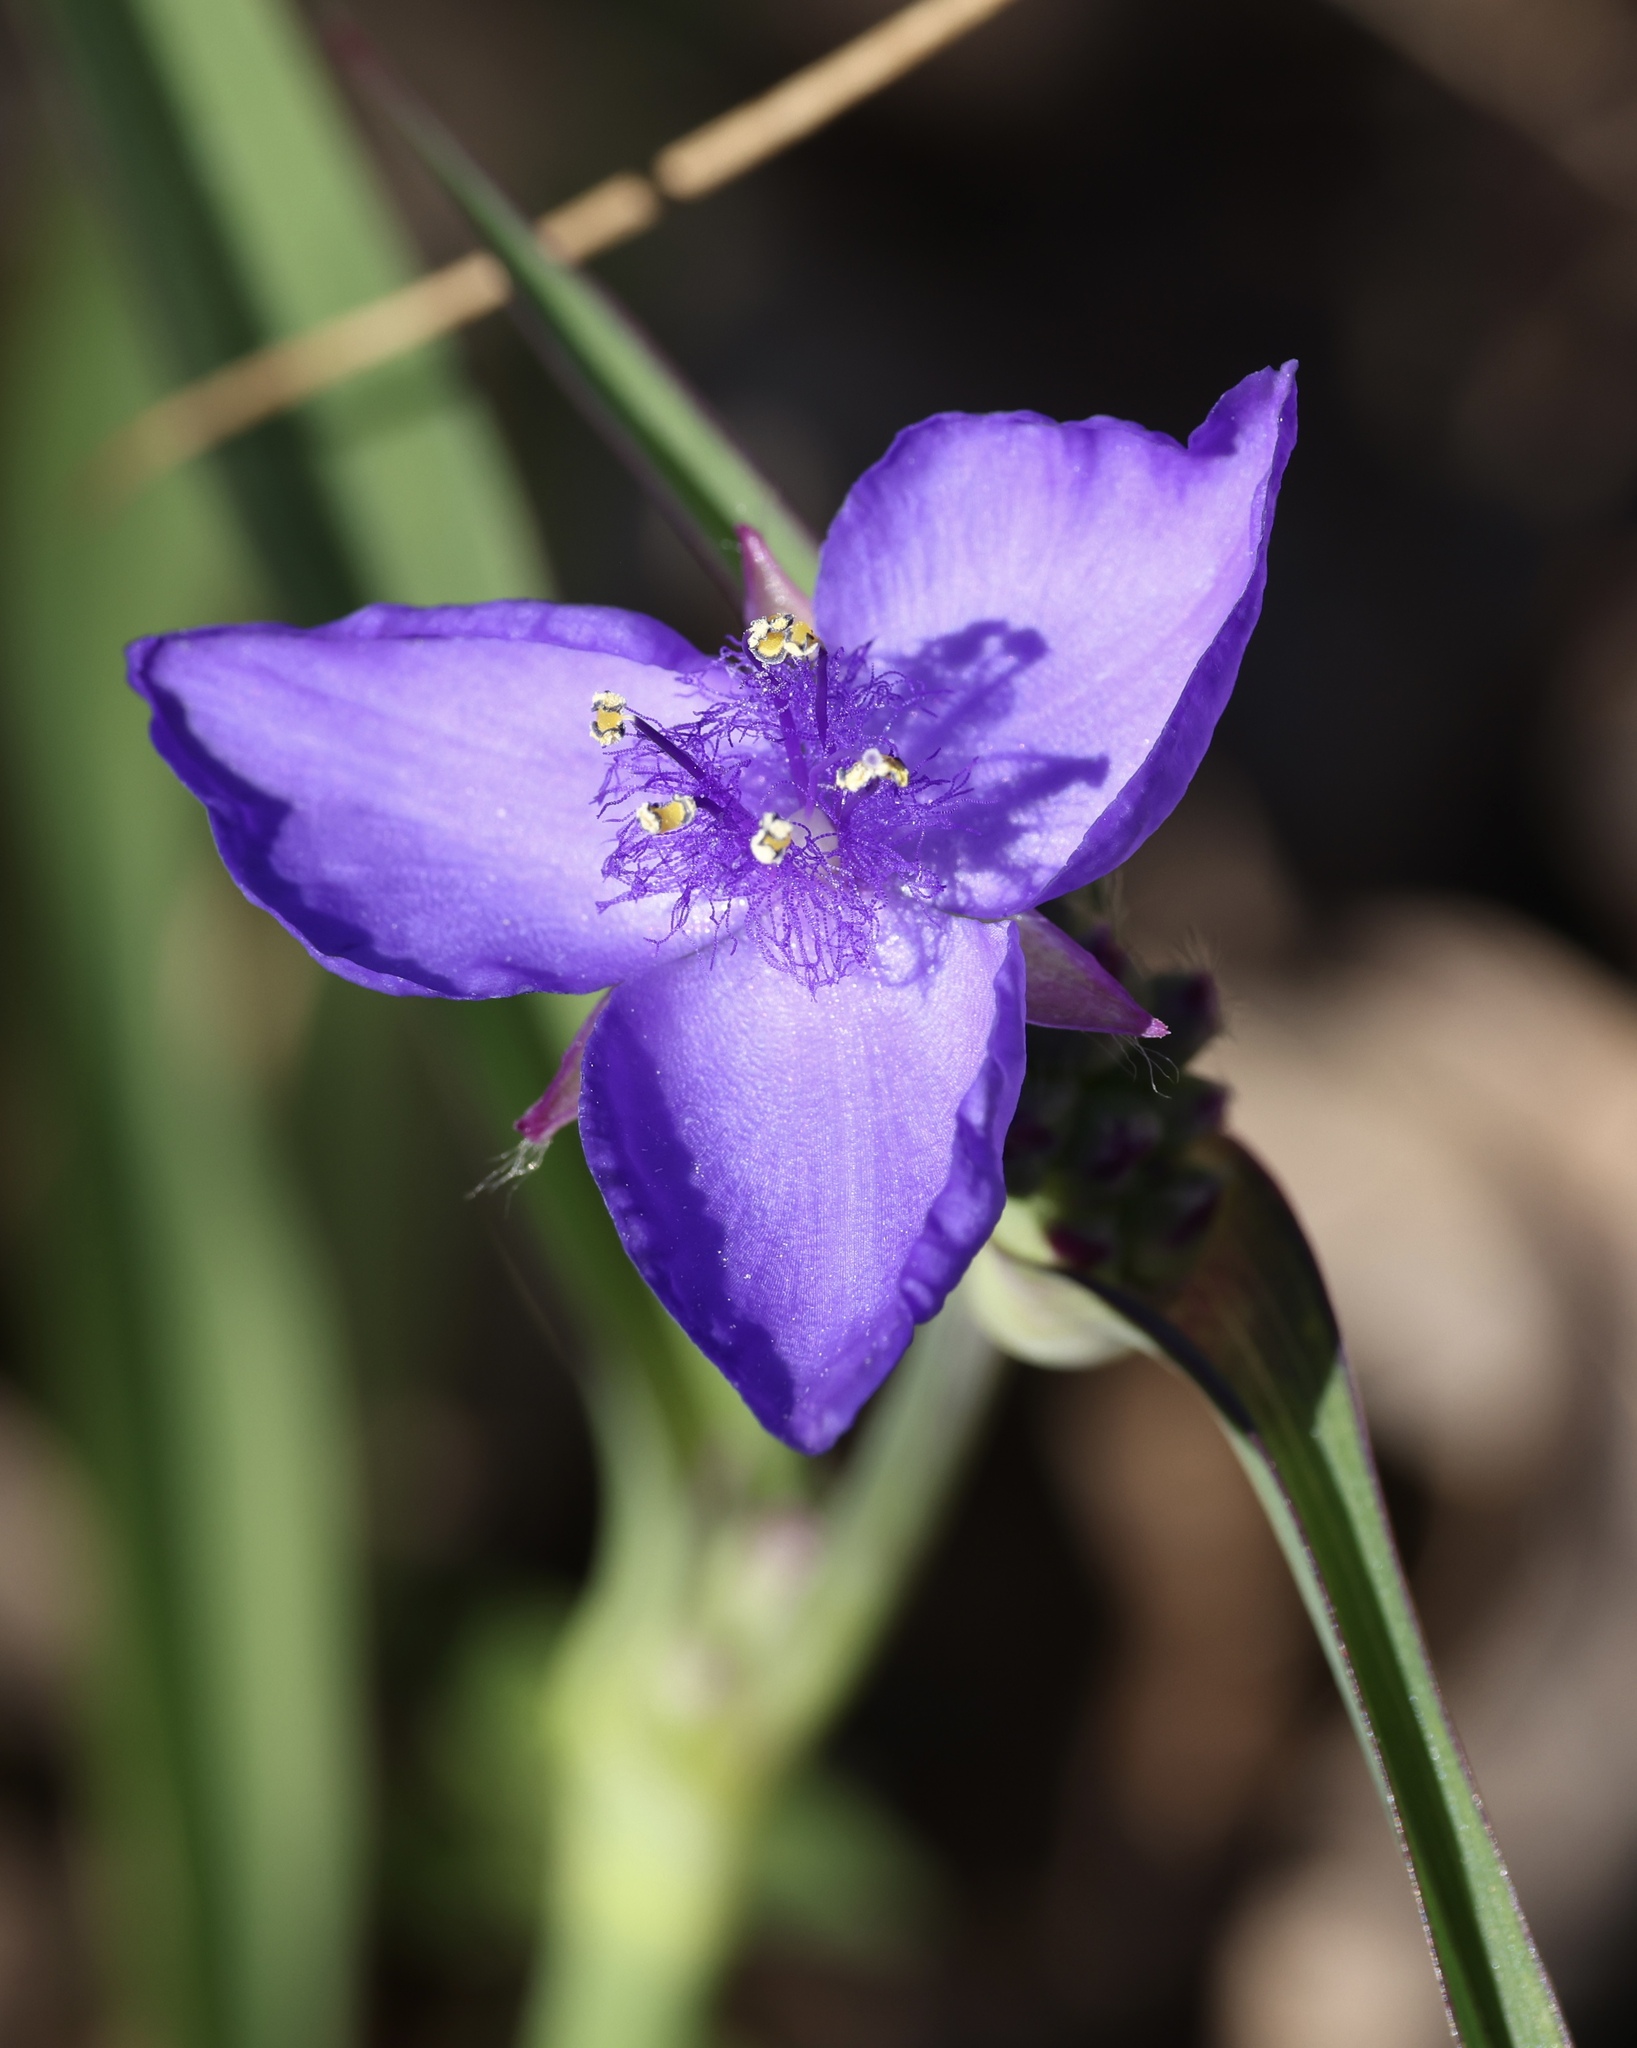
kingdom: Plantae
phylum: Tracheophyta
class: Liliopsida
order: Commelinales
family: Commelinaceae
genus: Tradescantia
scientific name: Tradescantia ohiensis
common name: Ohio spiderwort
